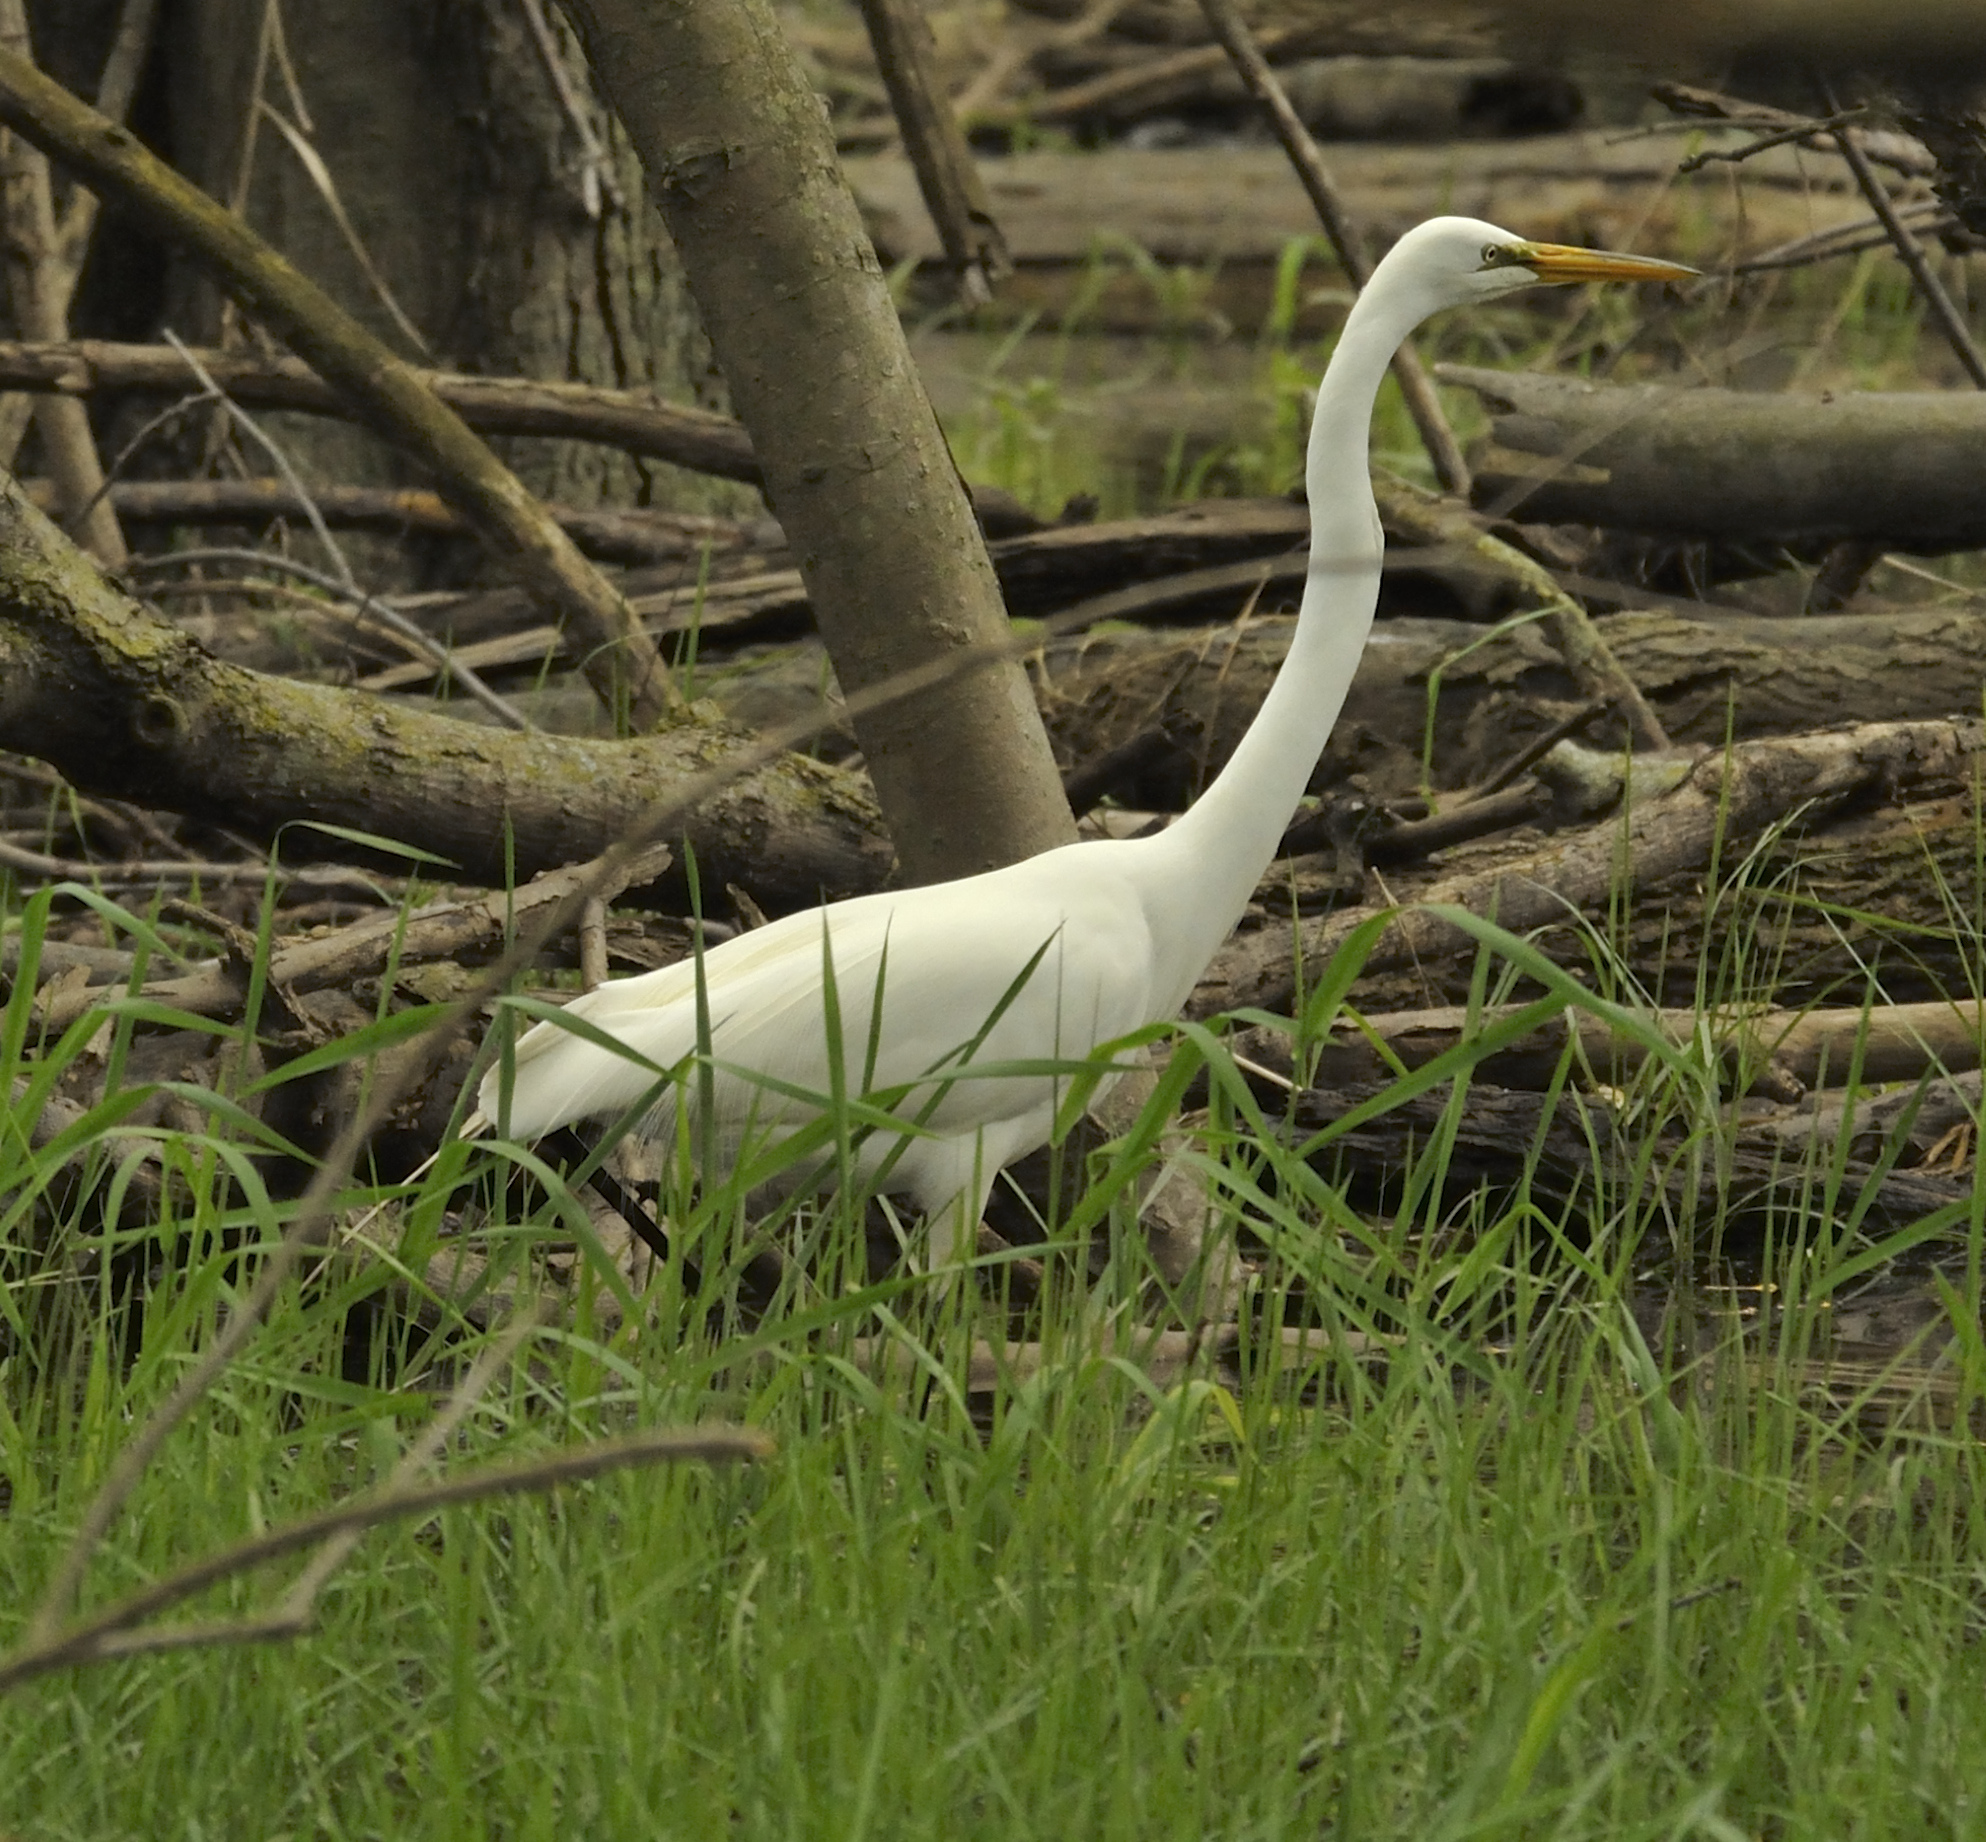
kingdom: Animalia
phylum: Chordata
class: Aves
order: Pelecaniformes
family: Ardeidae
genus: Ardea
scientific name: Ardea alba
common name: Great egret
